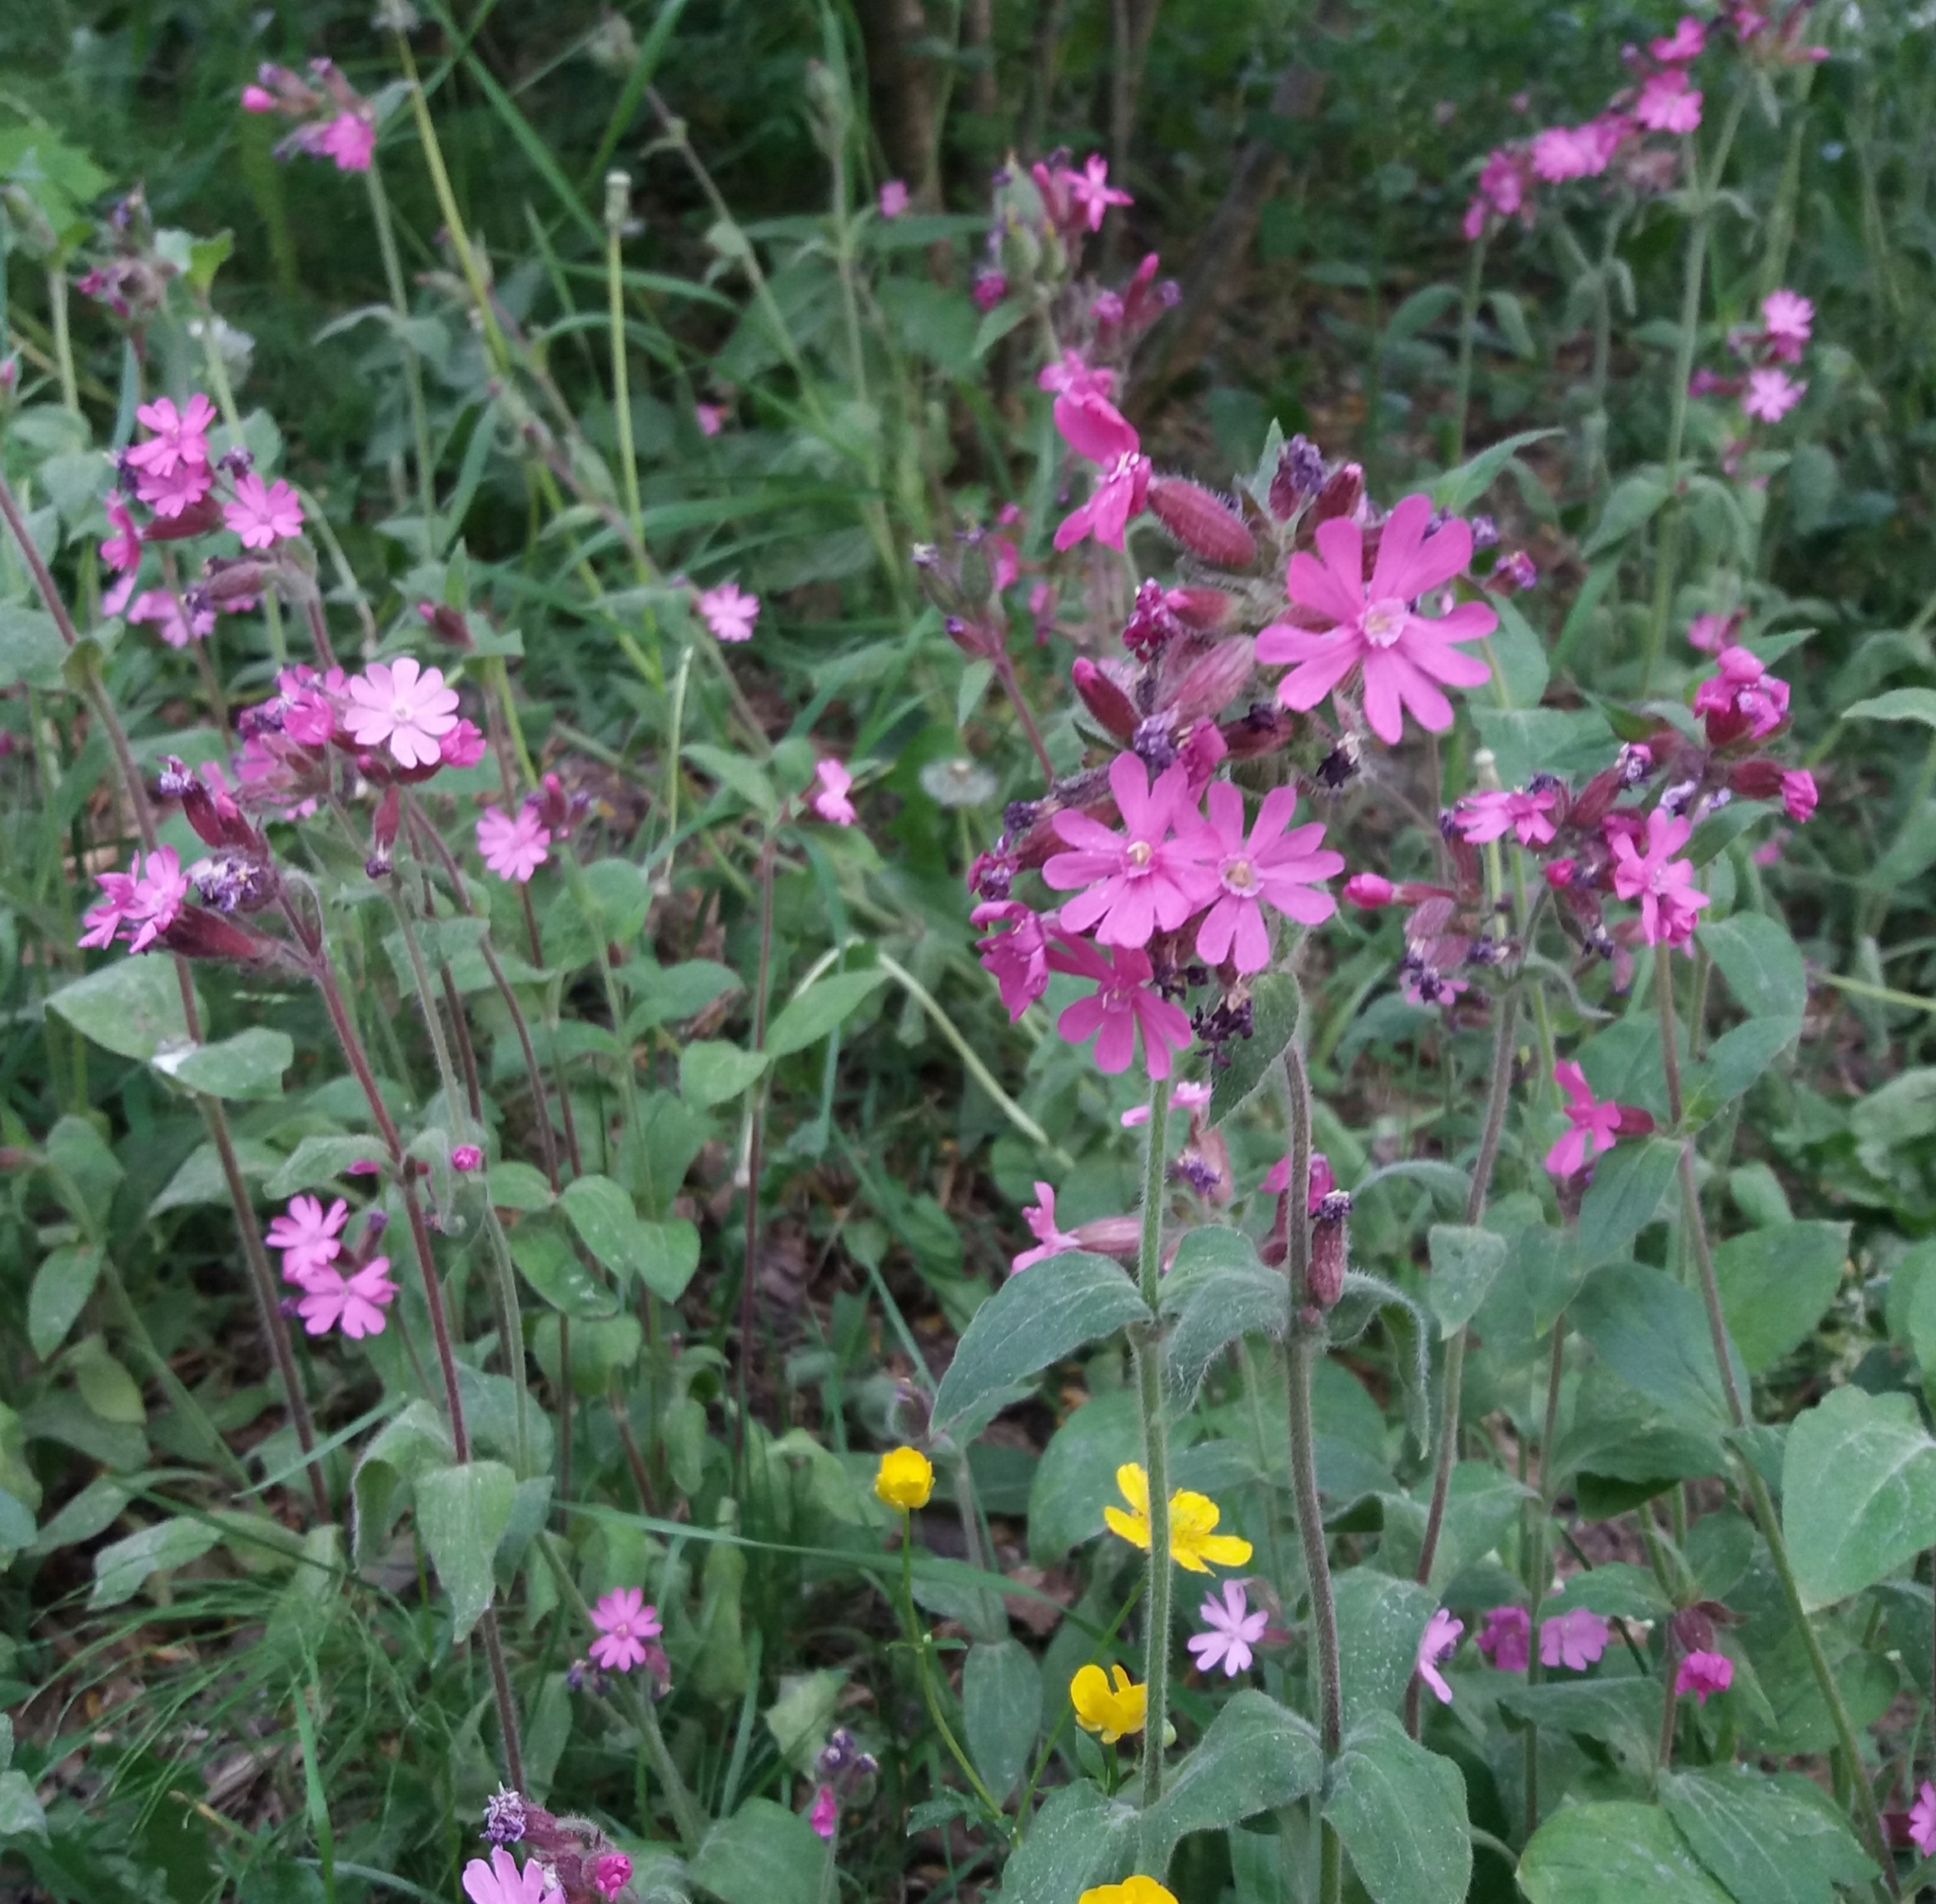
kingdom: Plantae
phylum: Tracheophyta
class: Magnoliopsida
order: Caryophyllales
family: Caryophyllaceae
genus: Silene
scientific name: Silene dioica
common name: Red campion
